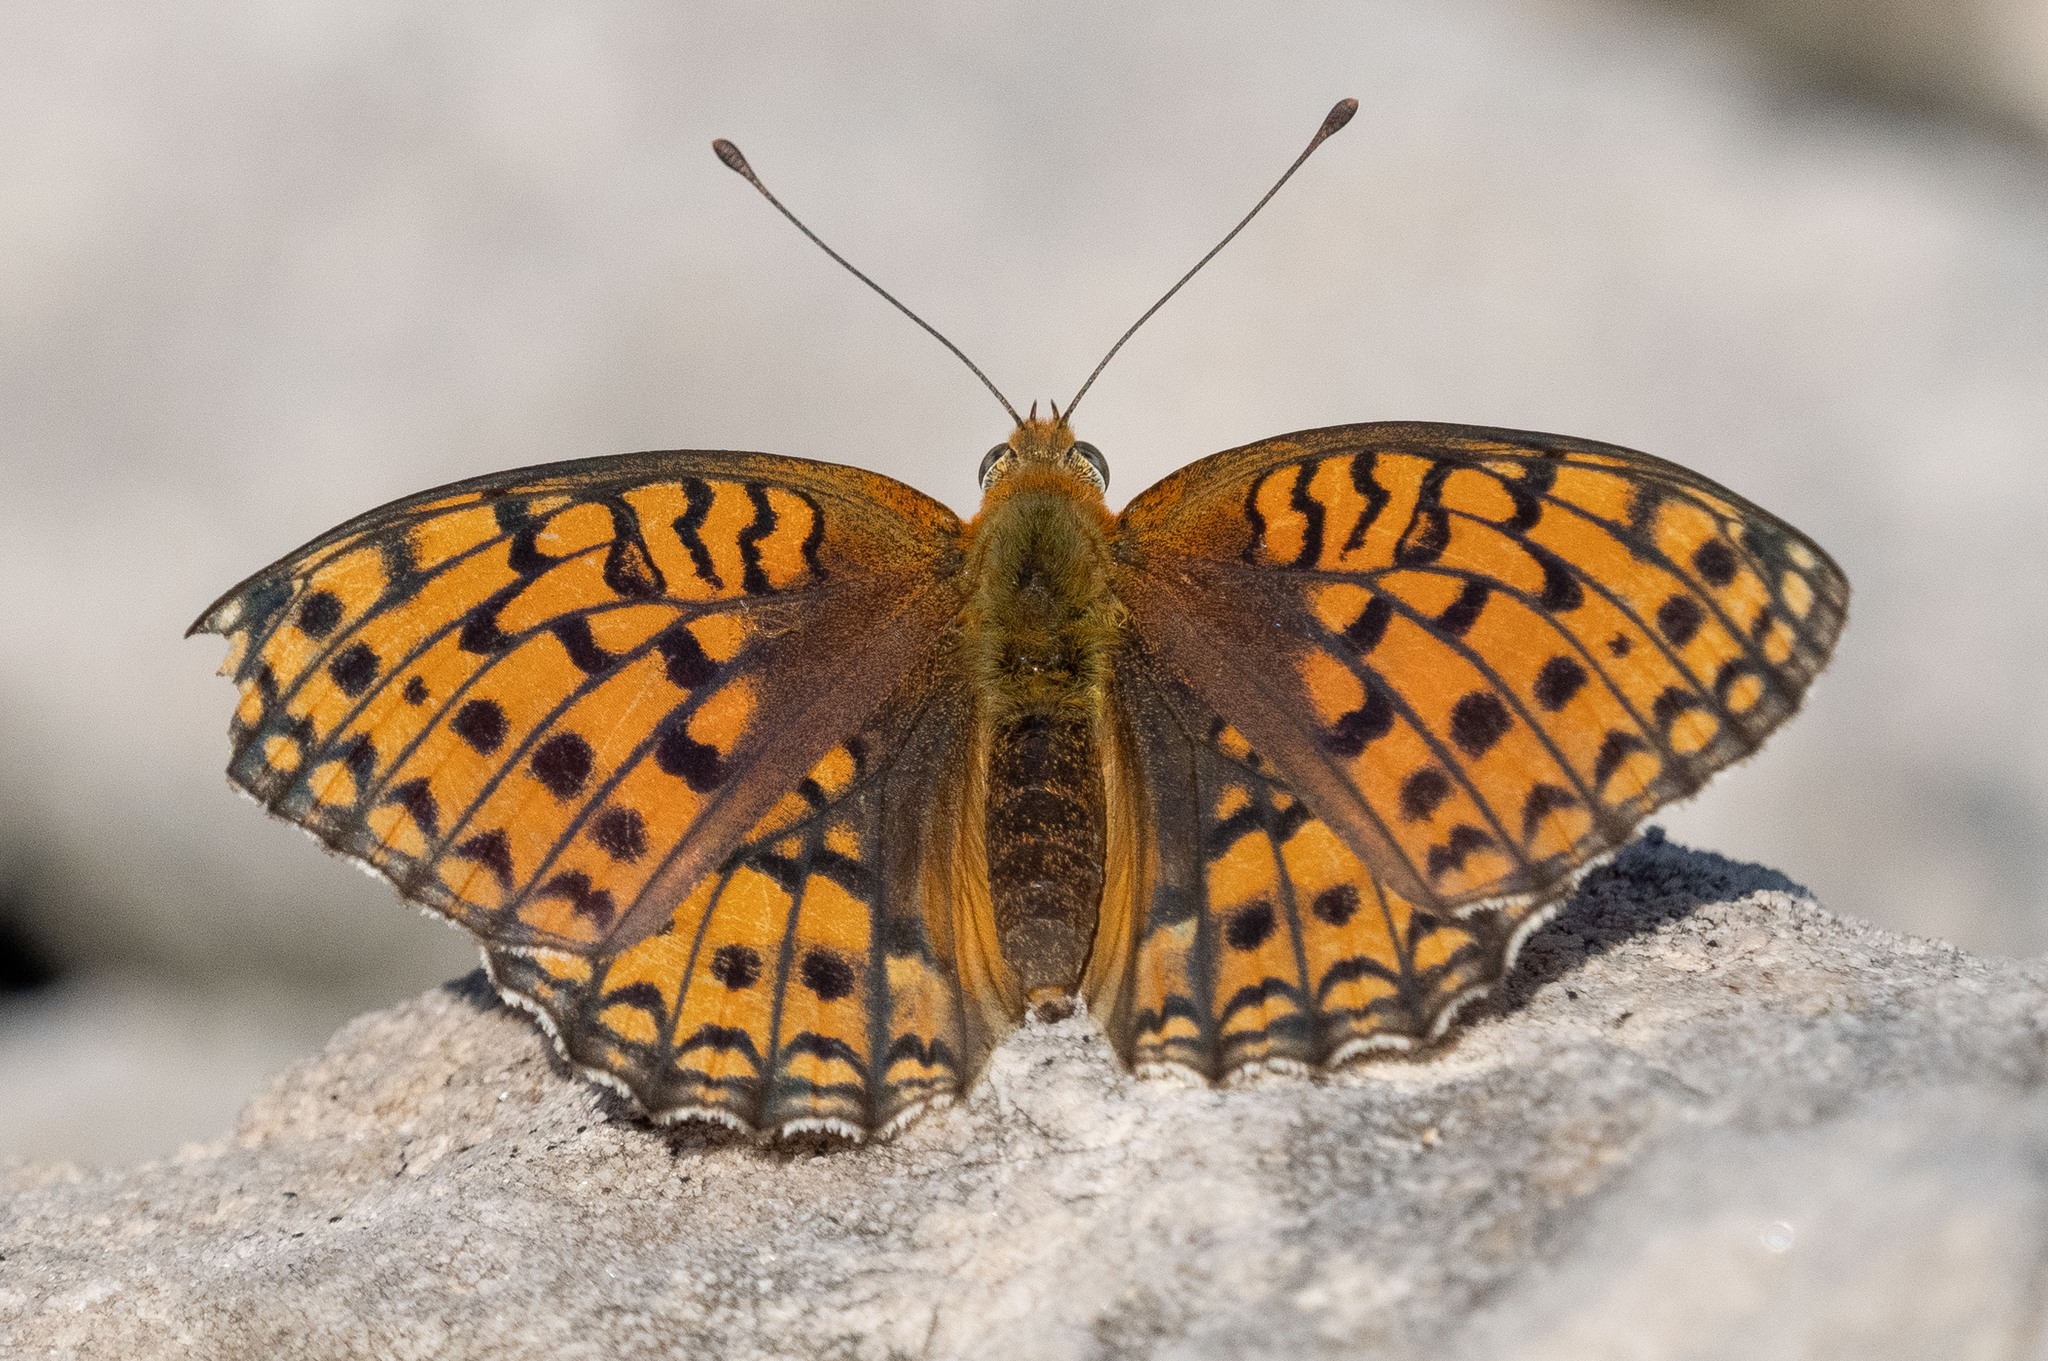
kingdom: Animalia
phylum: Arthropoda
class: Insecta
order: Lepidoptera
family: Nymphalidae
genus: Fabriciana
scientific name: Fabriciana niobe
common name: Niobe fritillary
